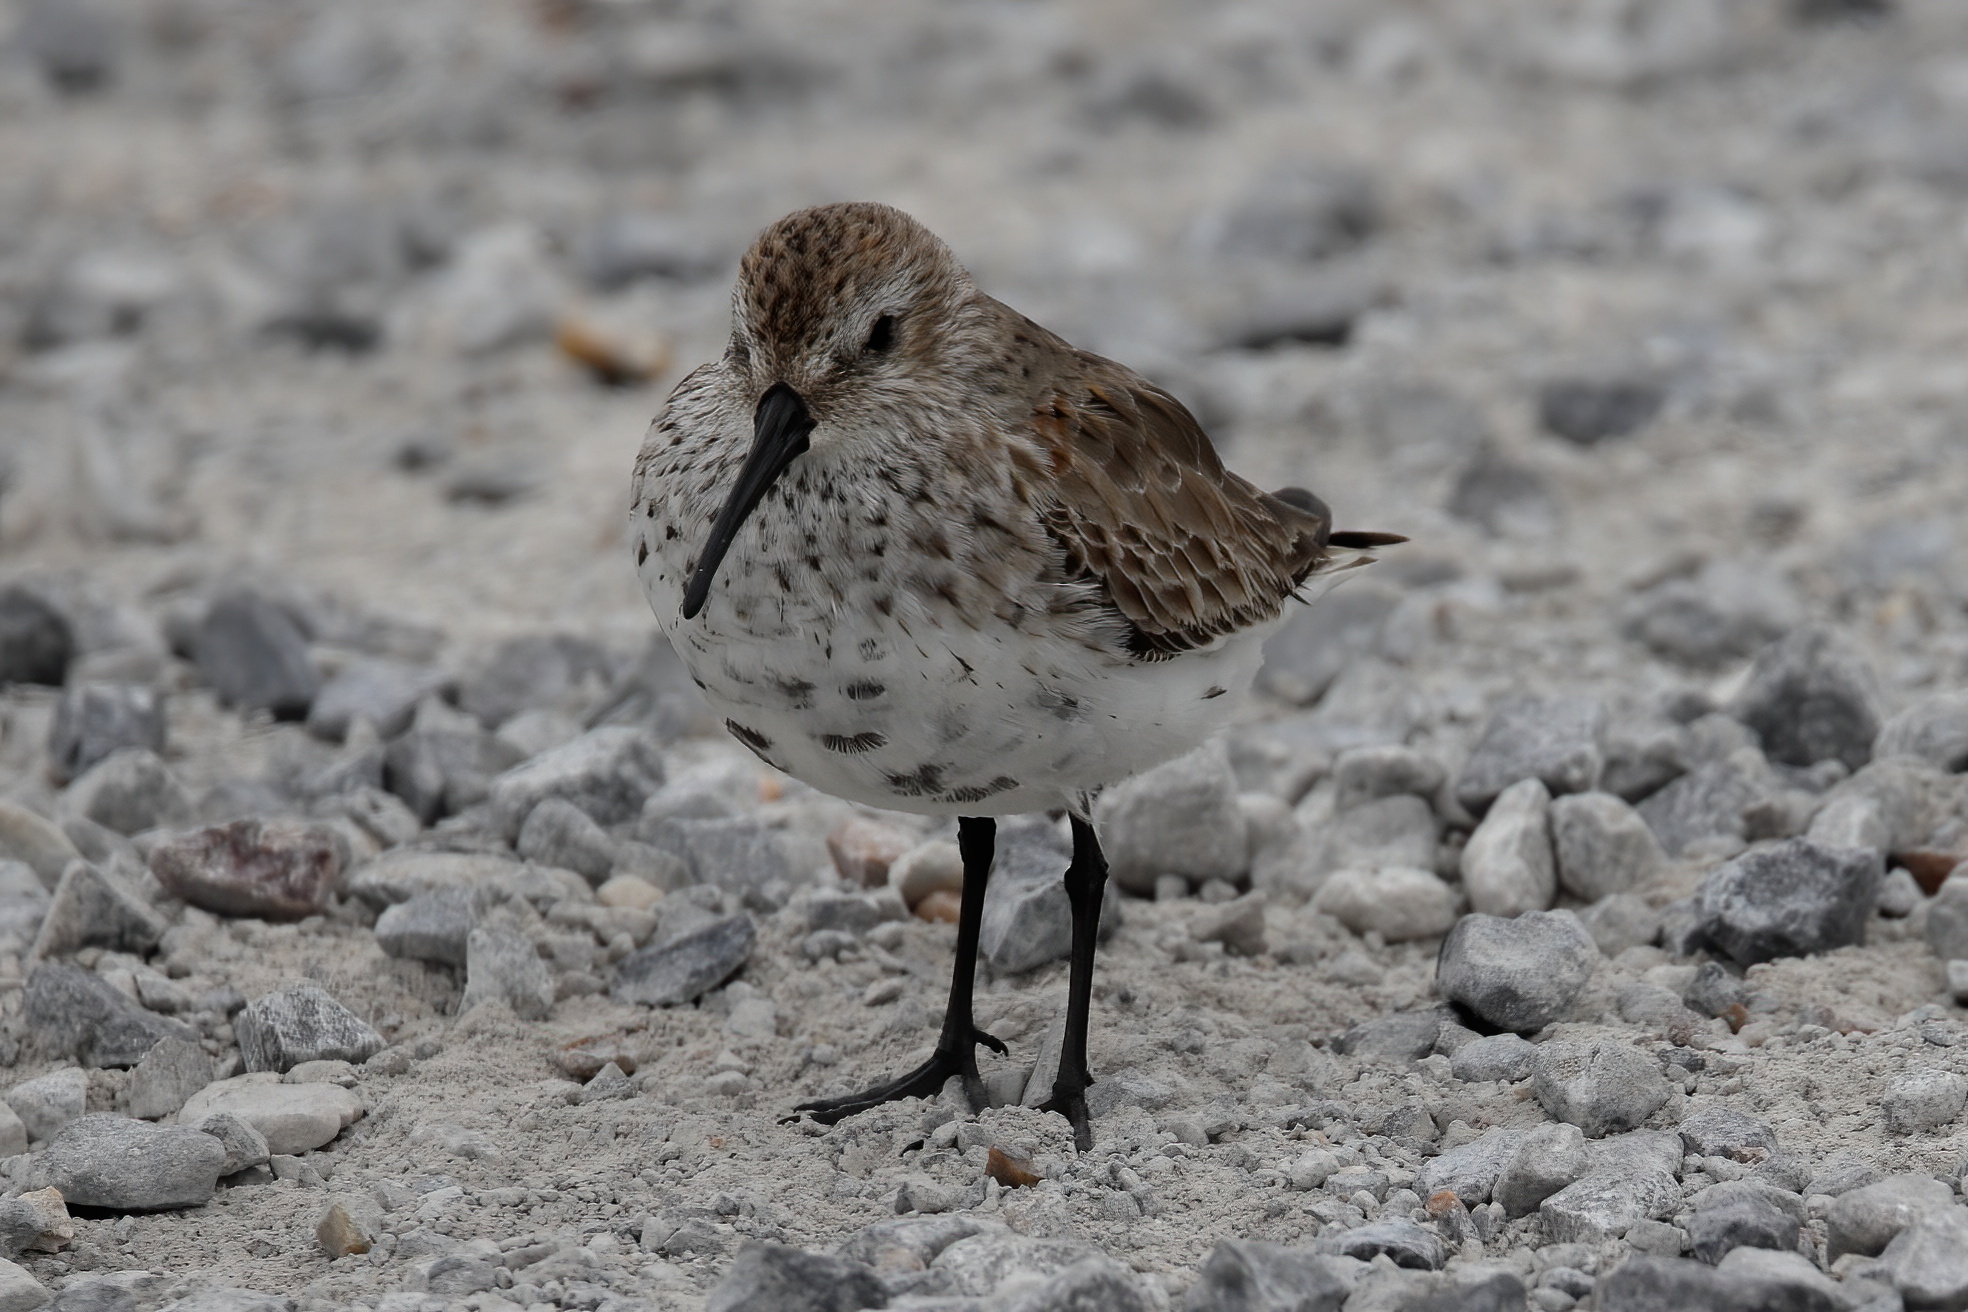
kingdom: Animalia
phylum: Chordata
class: Aves
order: Charadriiformes
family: Scolopacidae
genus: Calidris
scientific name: Calidris alpina
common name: Dunlin
